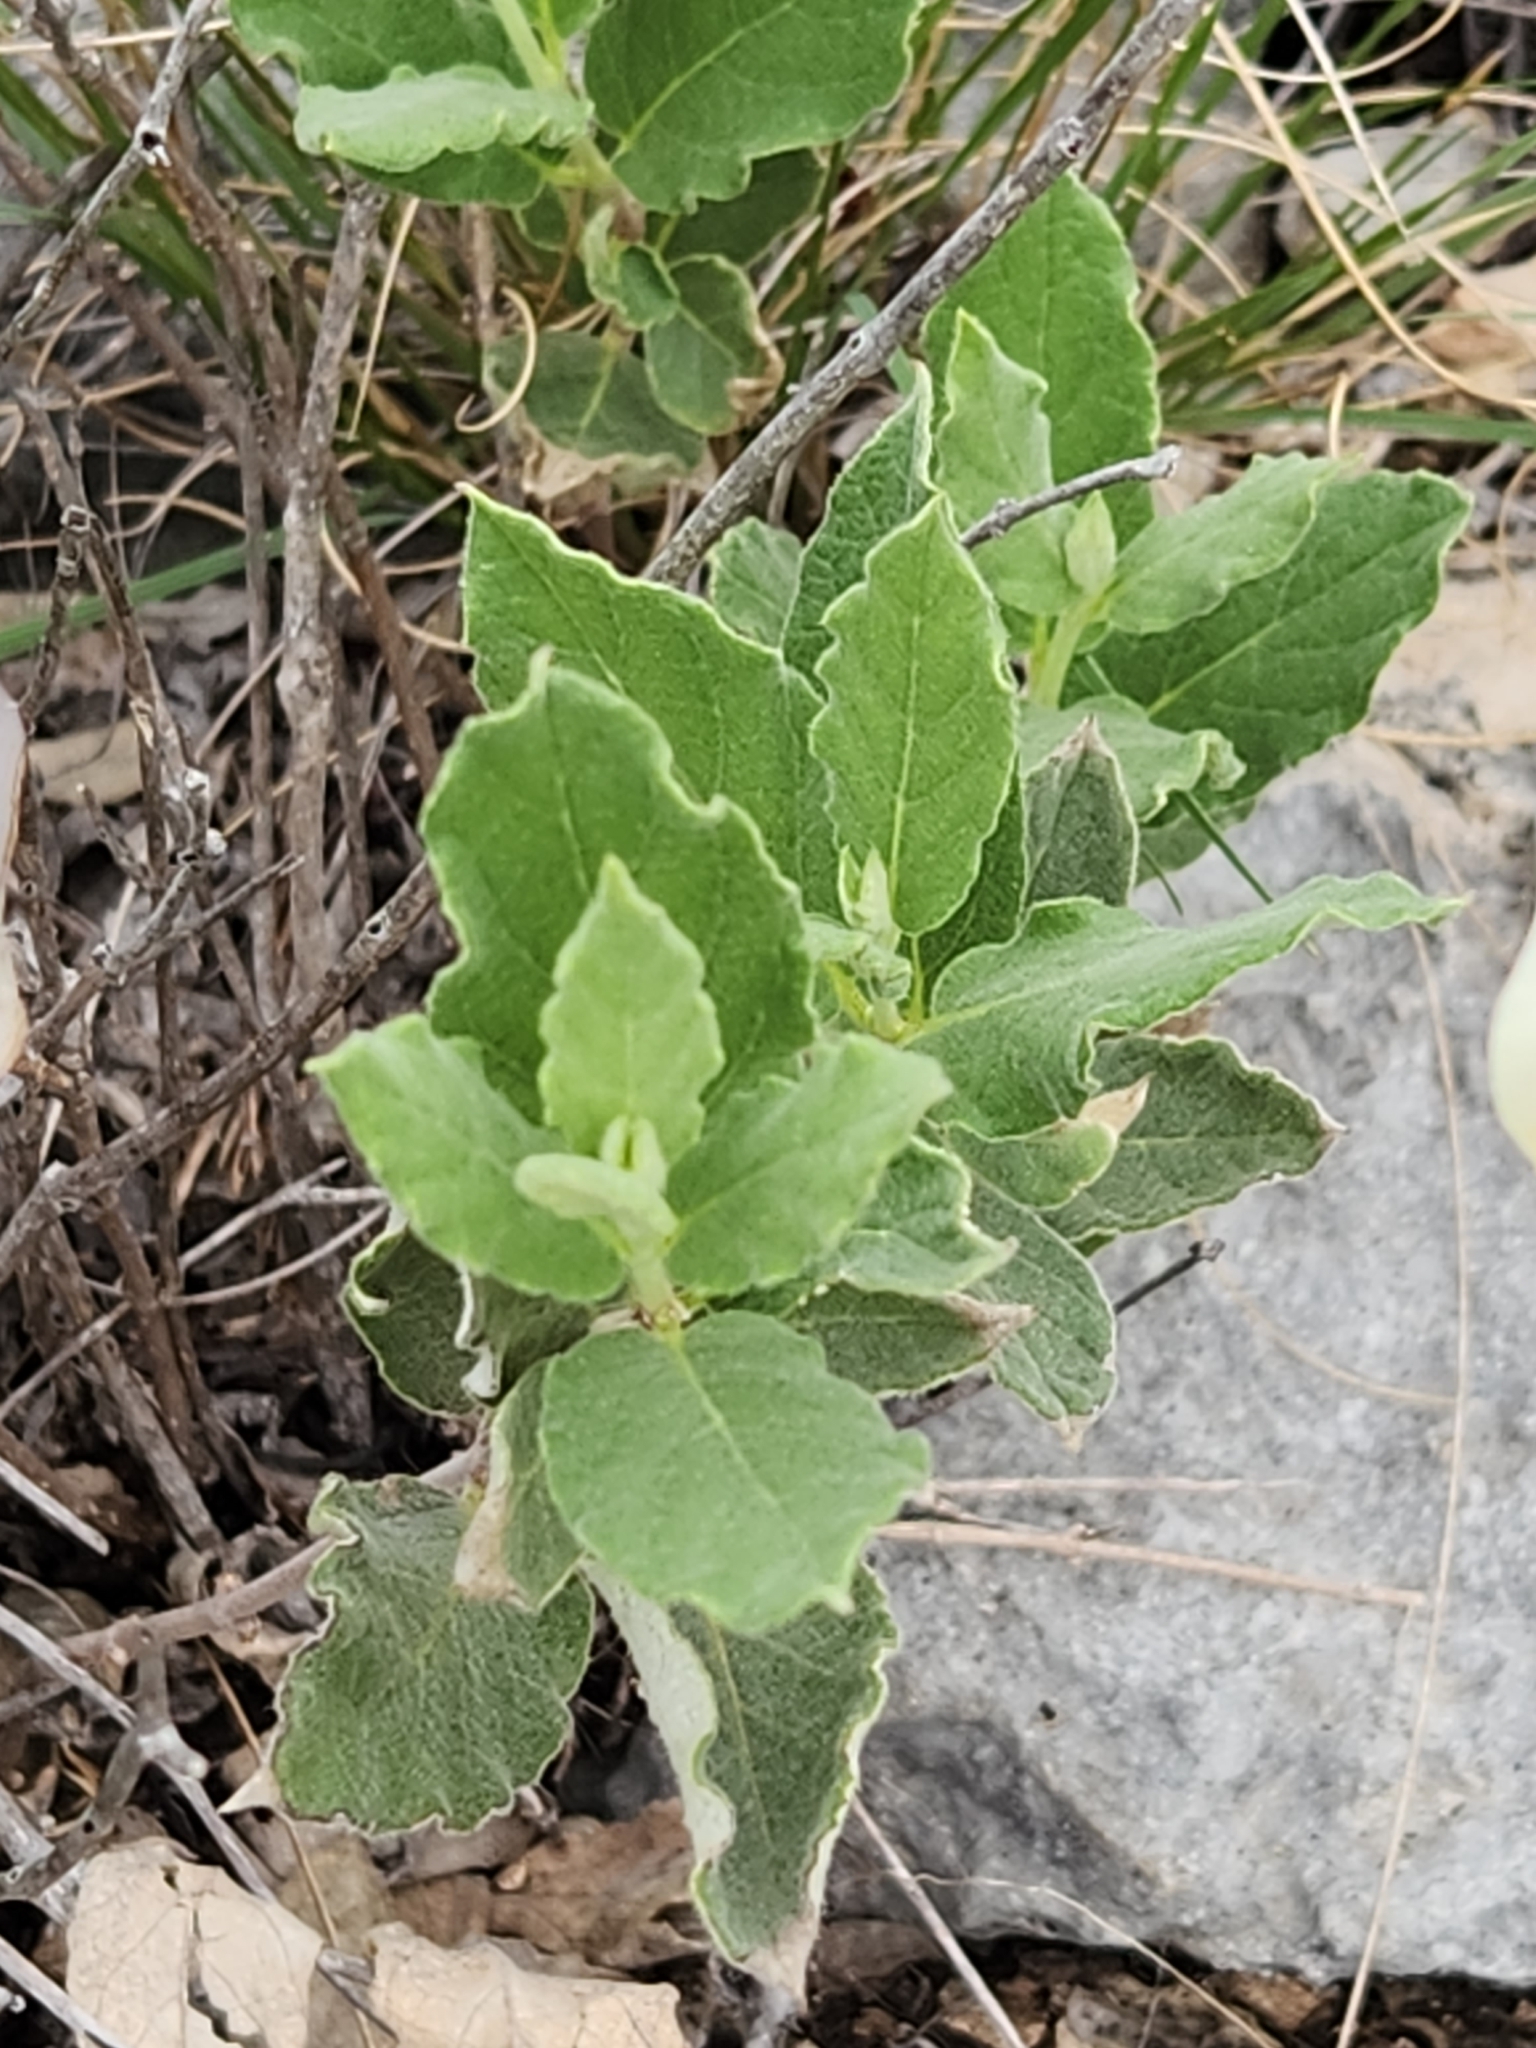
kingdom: Plantae
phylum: Tracheophyta
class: Magnoliopsida
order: Gentianales
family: Apocynaceae
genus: Mandevilla
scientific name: Mandevilla macrosiphon
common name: Plateau rocktrumpet
